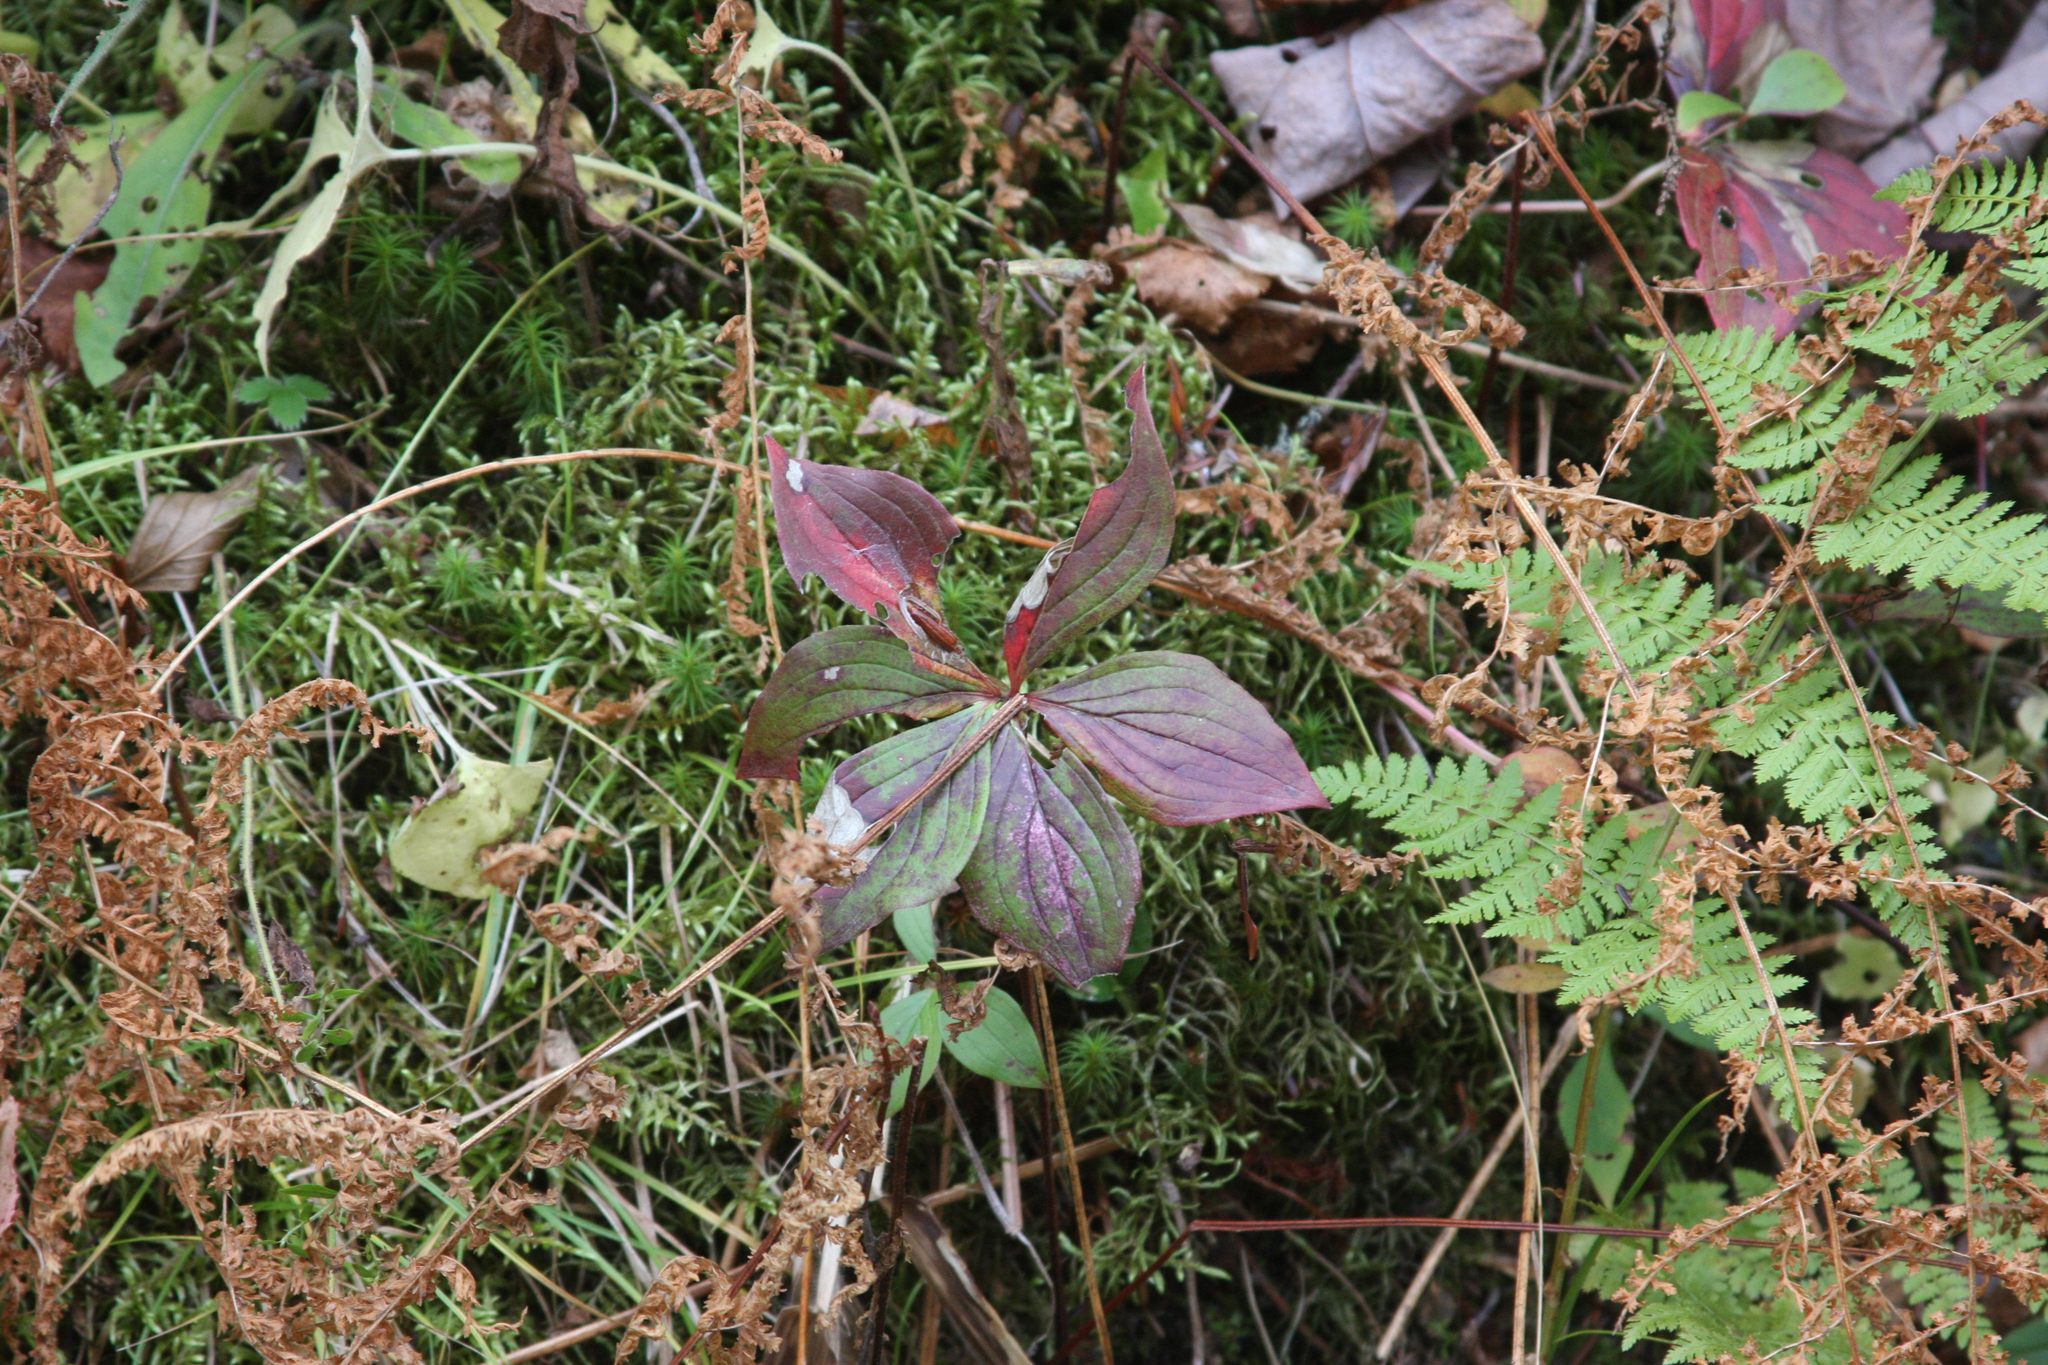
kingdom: Plantae
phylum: Tracheophyta
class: Magnoliopsida
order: Cornales
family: Cornaceae
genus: Cornus
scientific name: Cornus canadensis
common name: Creeping dogwood
